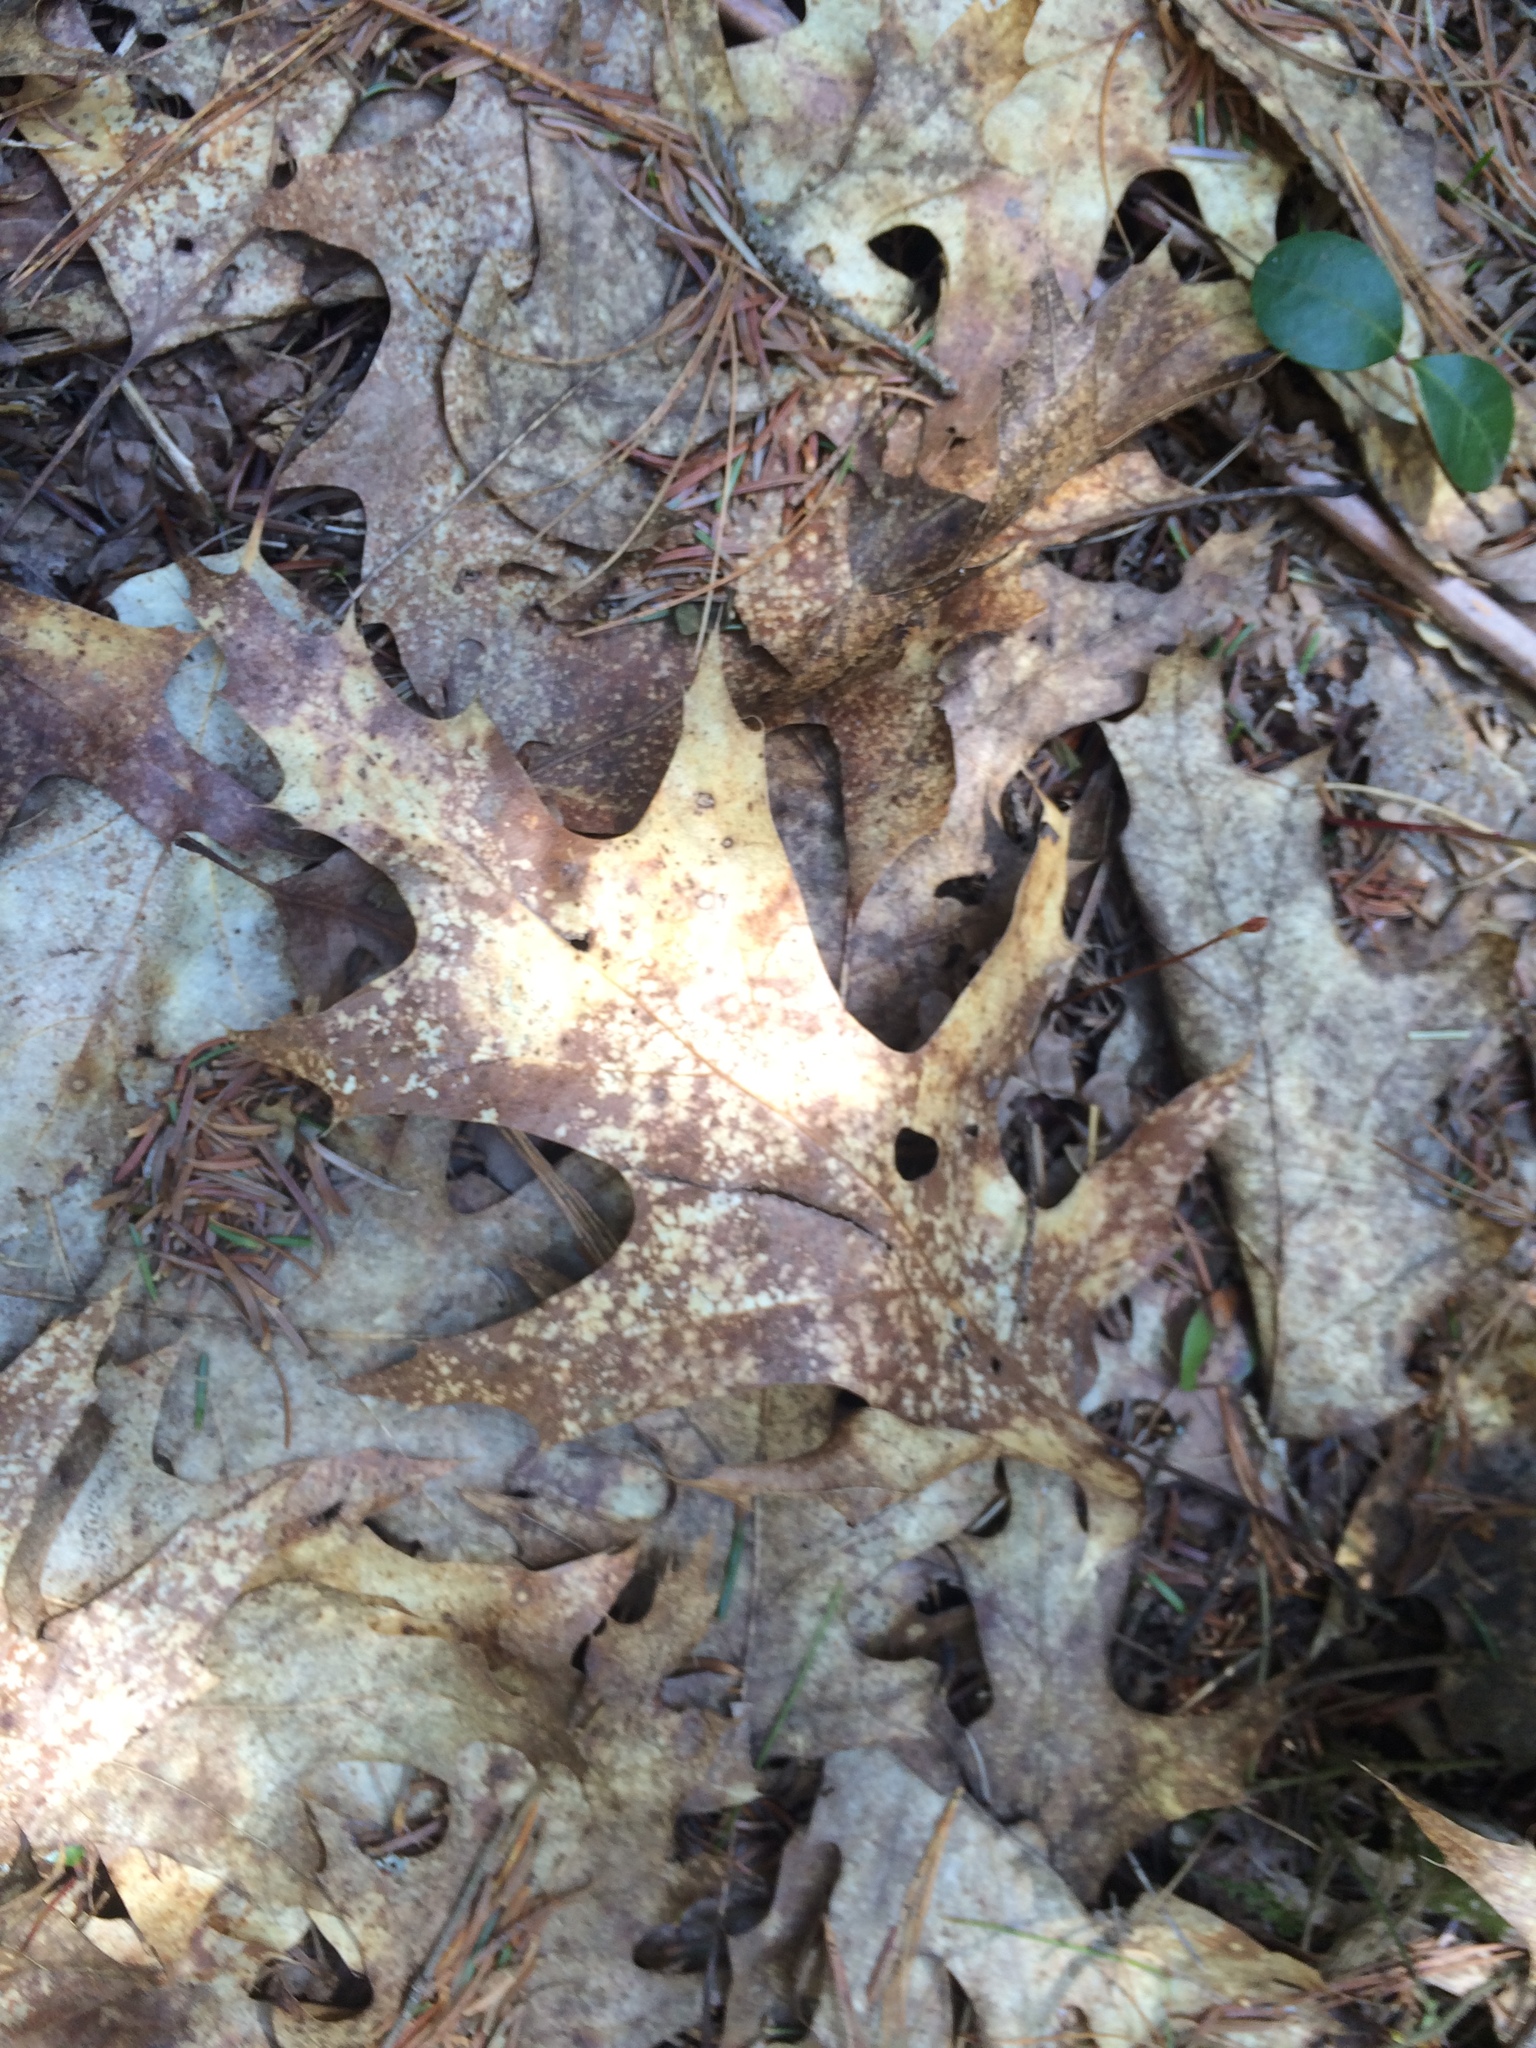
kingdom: Plantae
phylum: Tracheophyta
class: Magnoliopsida
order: Fagales
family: Fagaceae
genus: Quercus
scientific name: Quercus rubra
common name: Red oak
